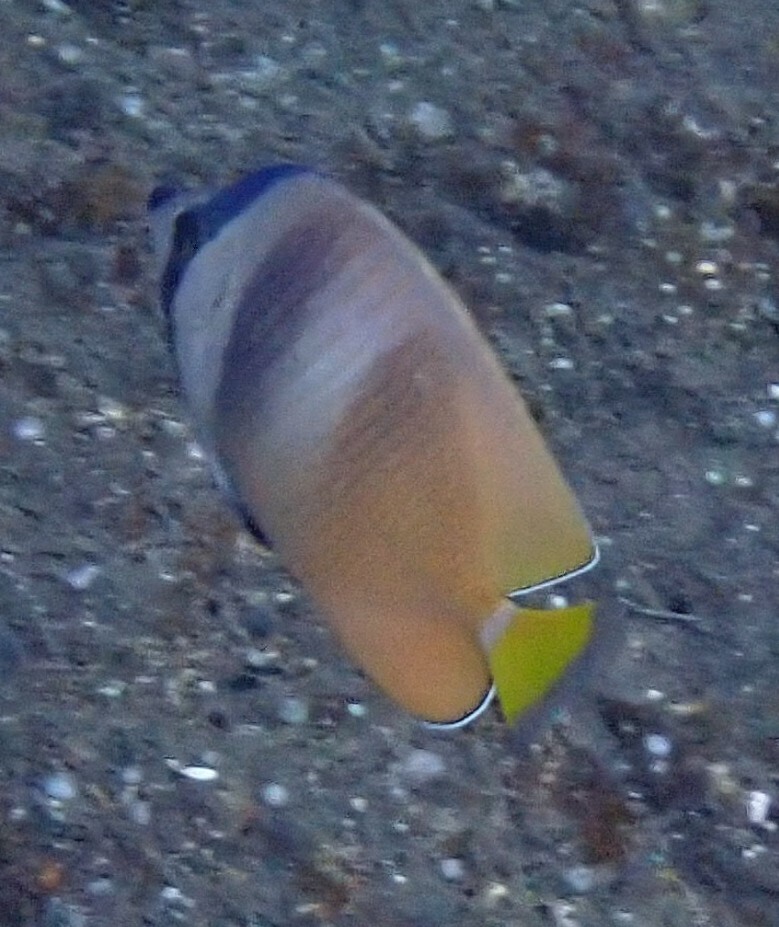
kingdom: Animalia
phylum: Chordata
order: Perciformes
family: Chaetodontidae
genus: Chaetodon
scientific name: Chaetodon kleinii
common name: Klein's butterflyfish
